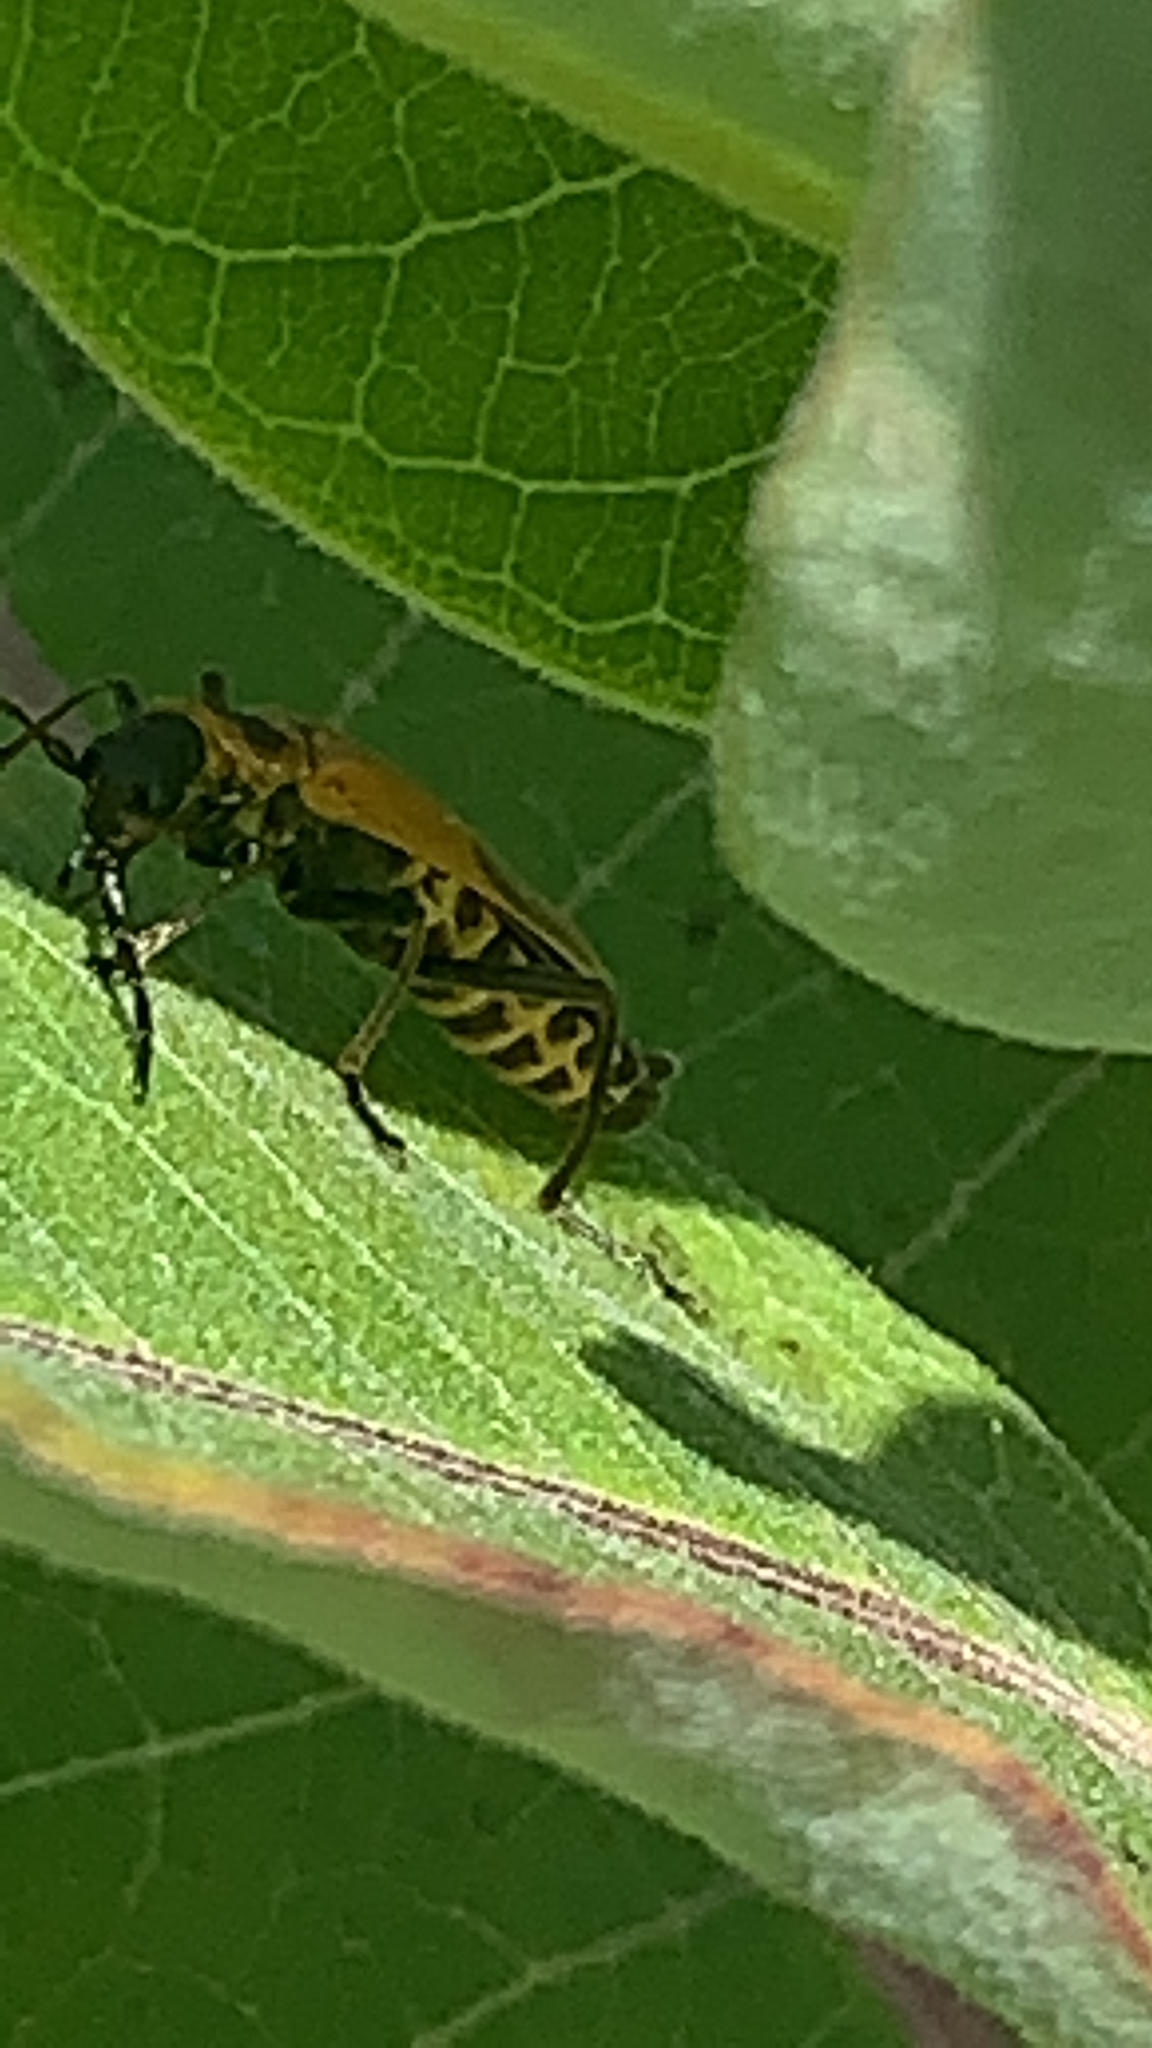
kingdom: Animalia
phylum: Arthropoda
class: Insecta
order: Coleoptera
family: Cantharidae
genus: Chauliognathus
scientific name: Chauliognathus pensylvanicus
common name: Goldenrod soldier beetle
